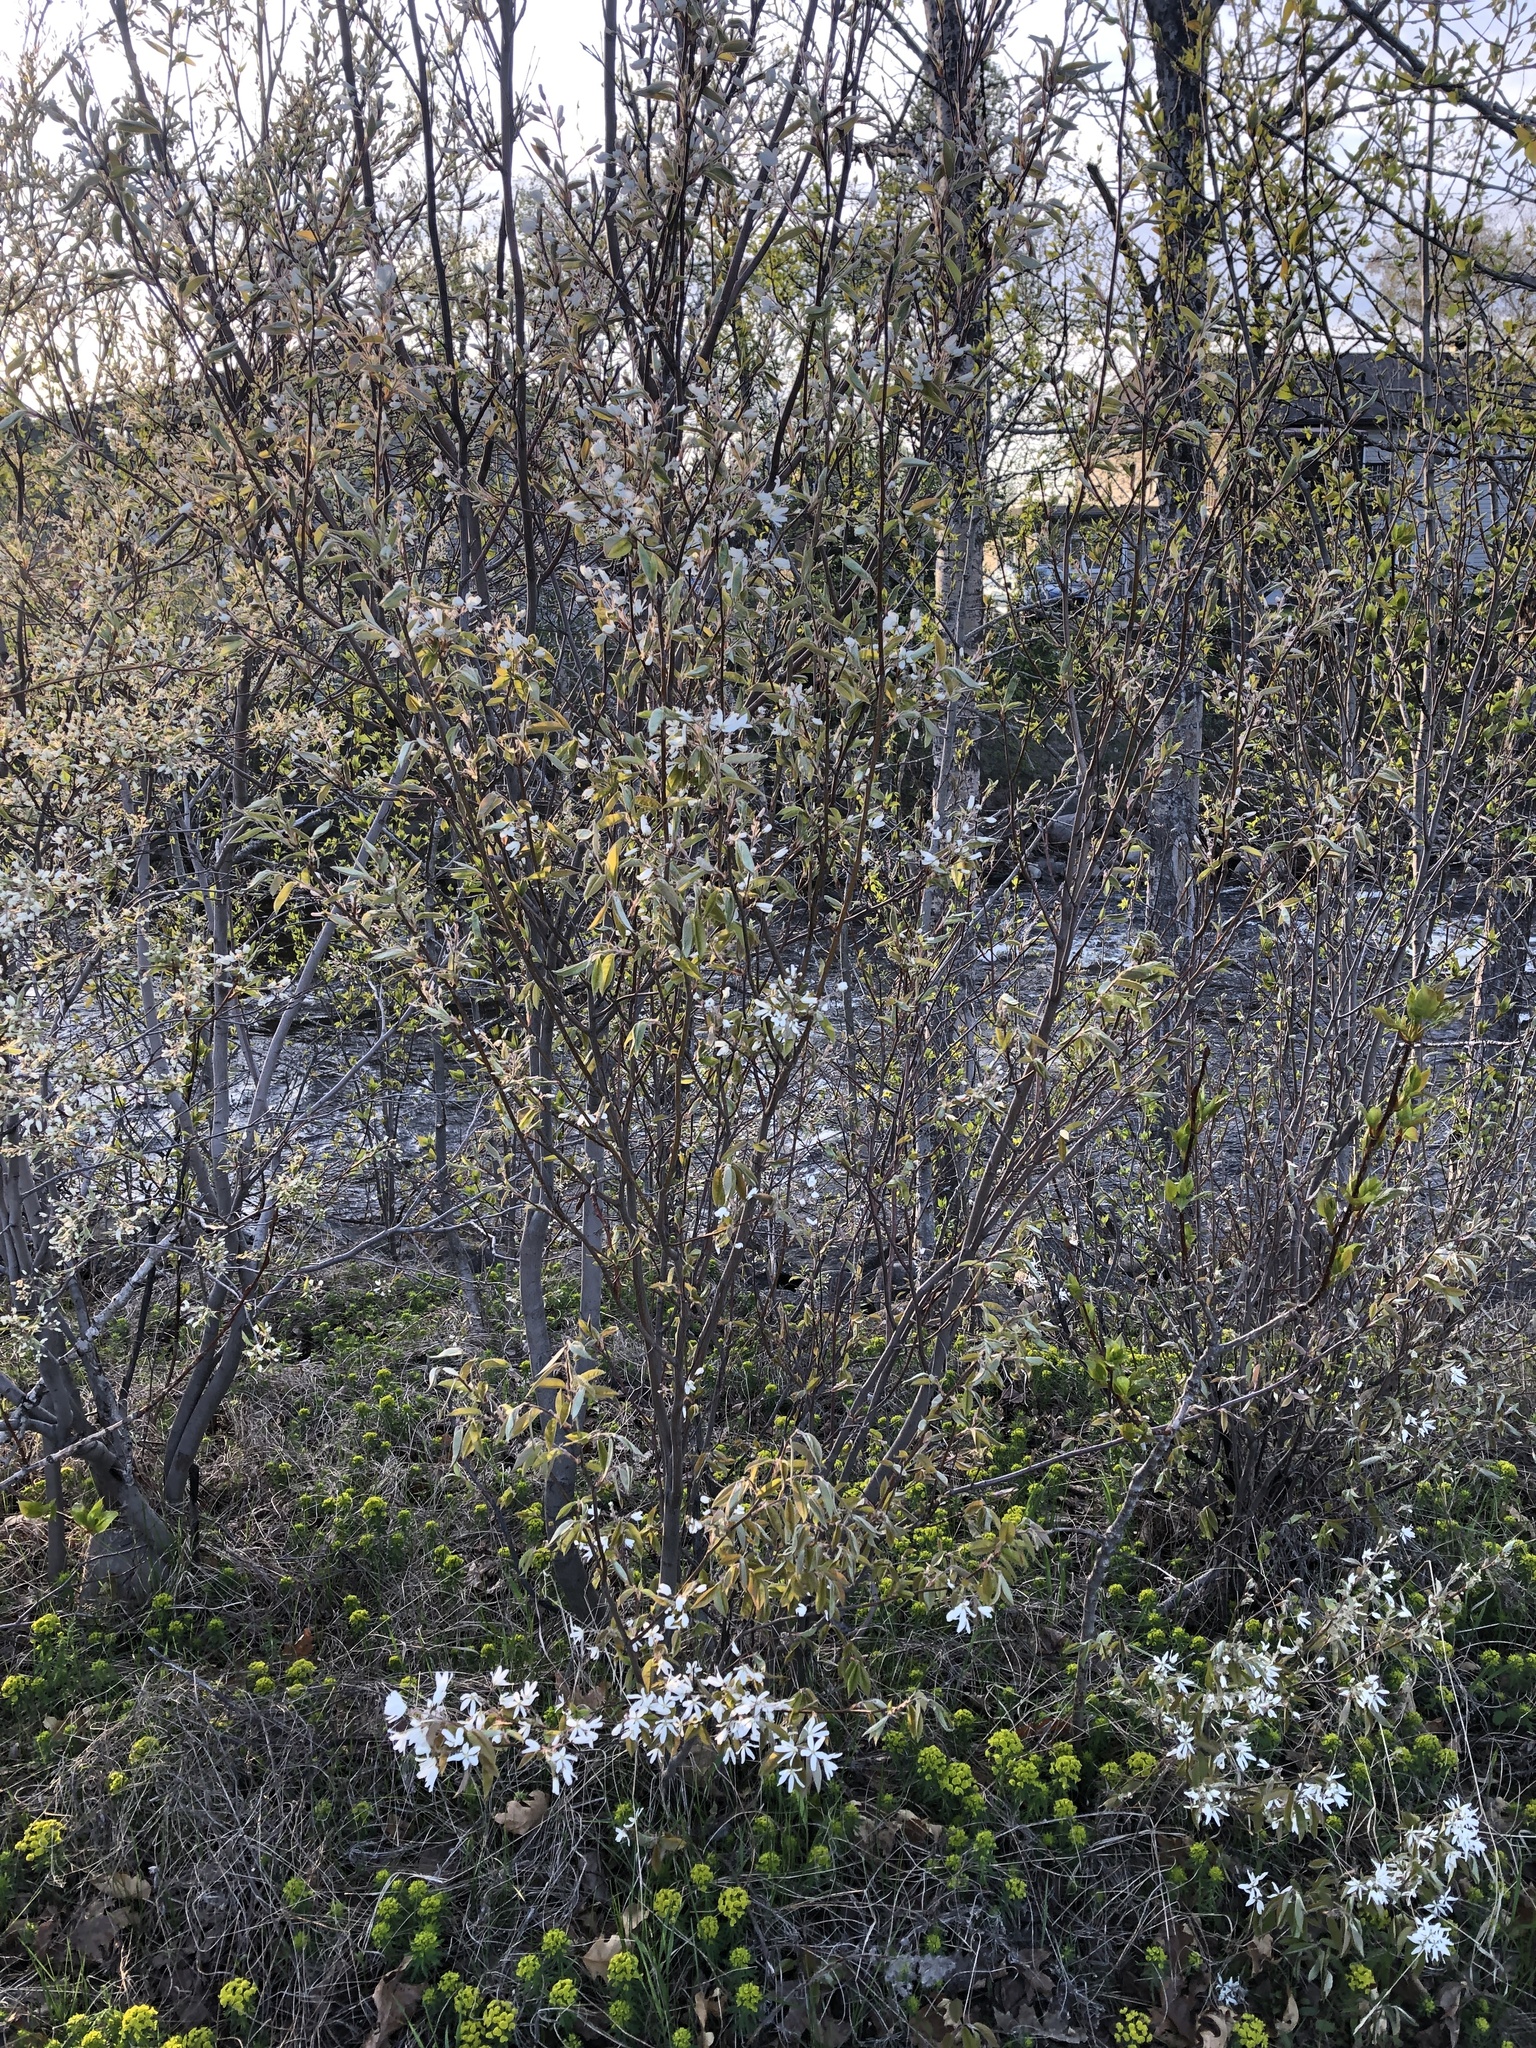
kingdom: Plantae
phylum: Tracheophyta
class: Magnoliopsida
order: Rosales
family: Rosaceae
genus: Amelanchier
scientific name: Amelanchier arborea
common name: Downy serviceberry
